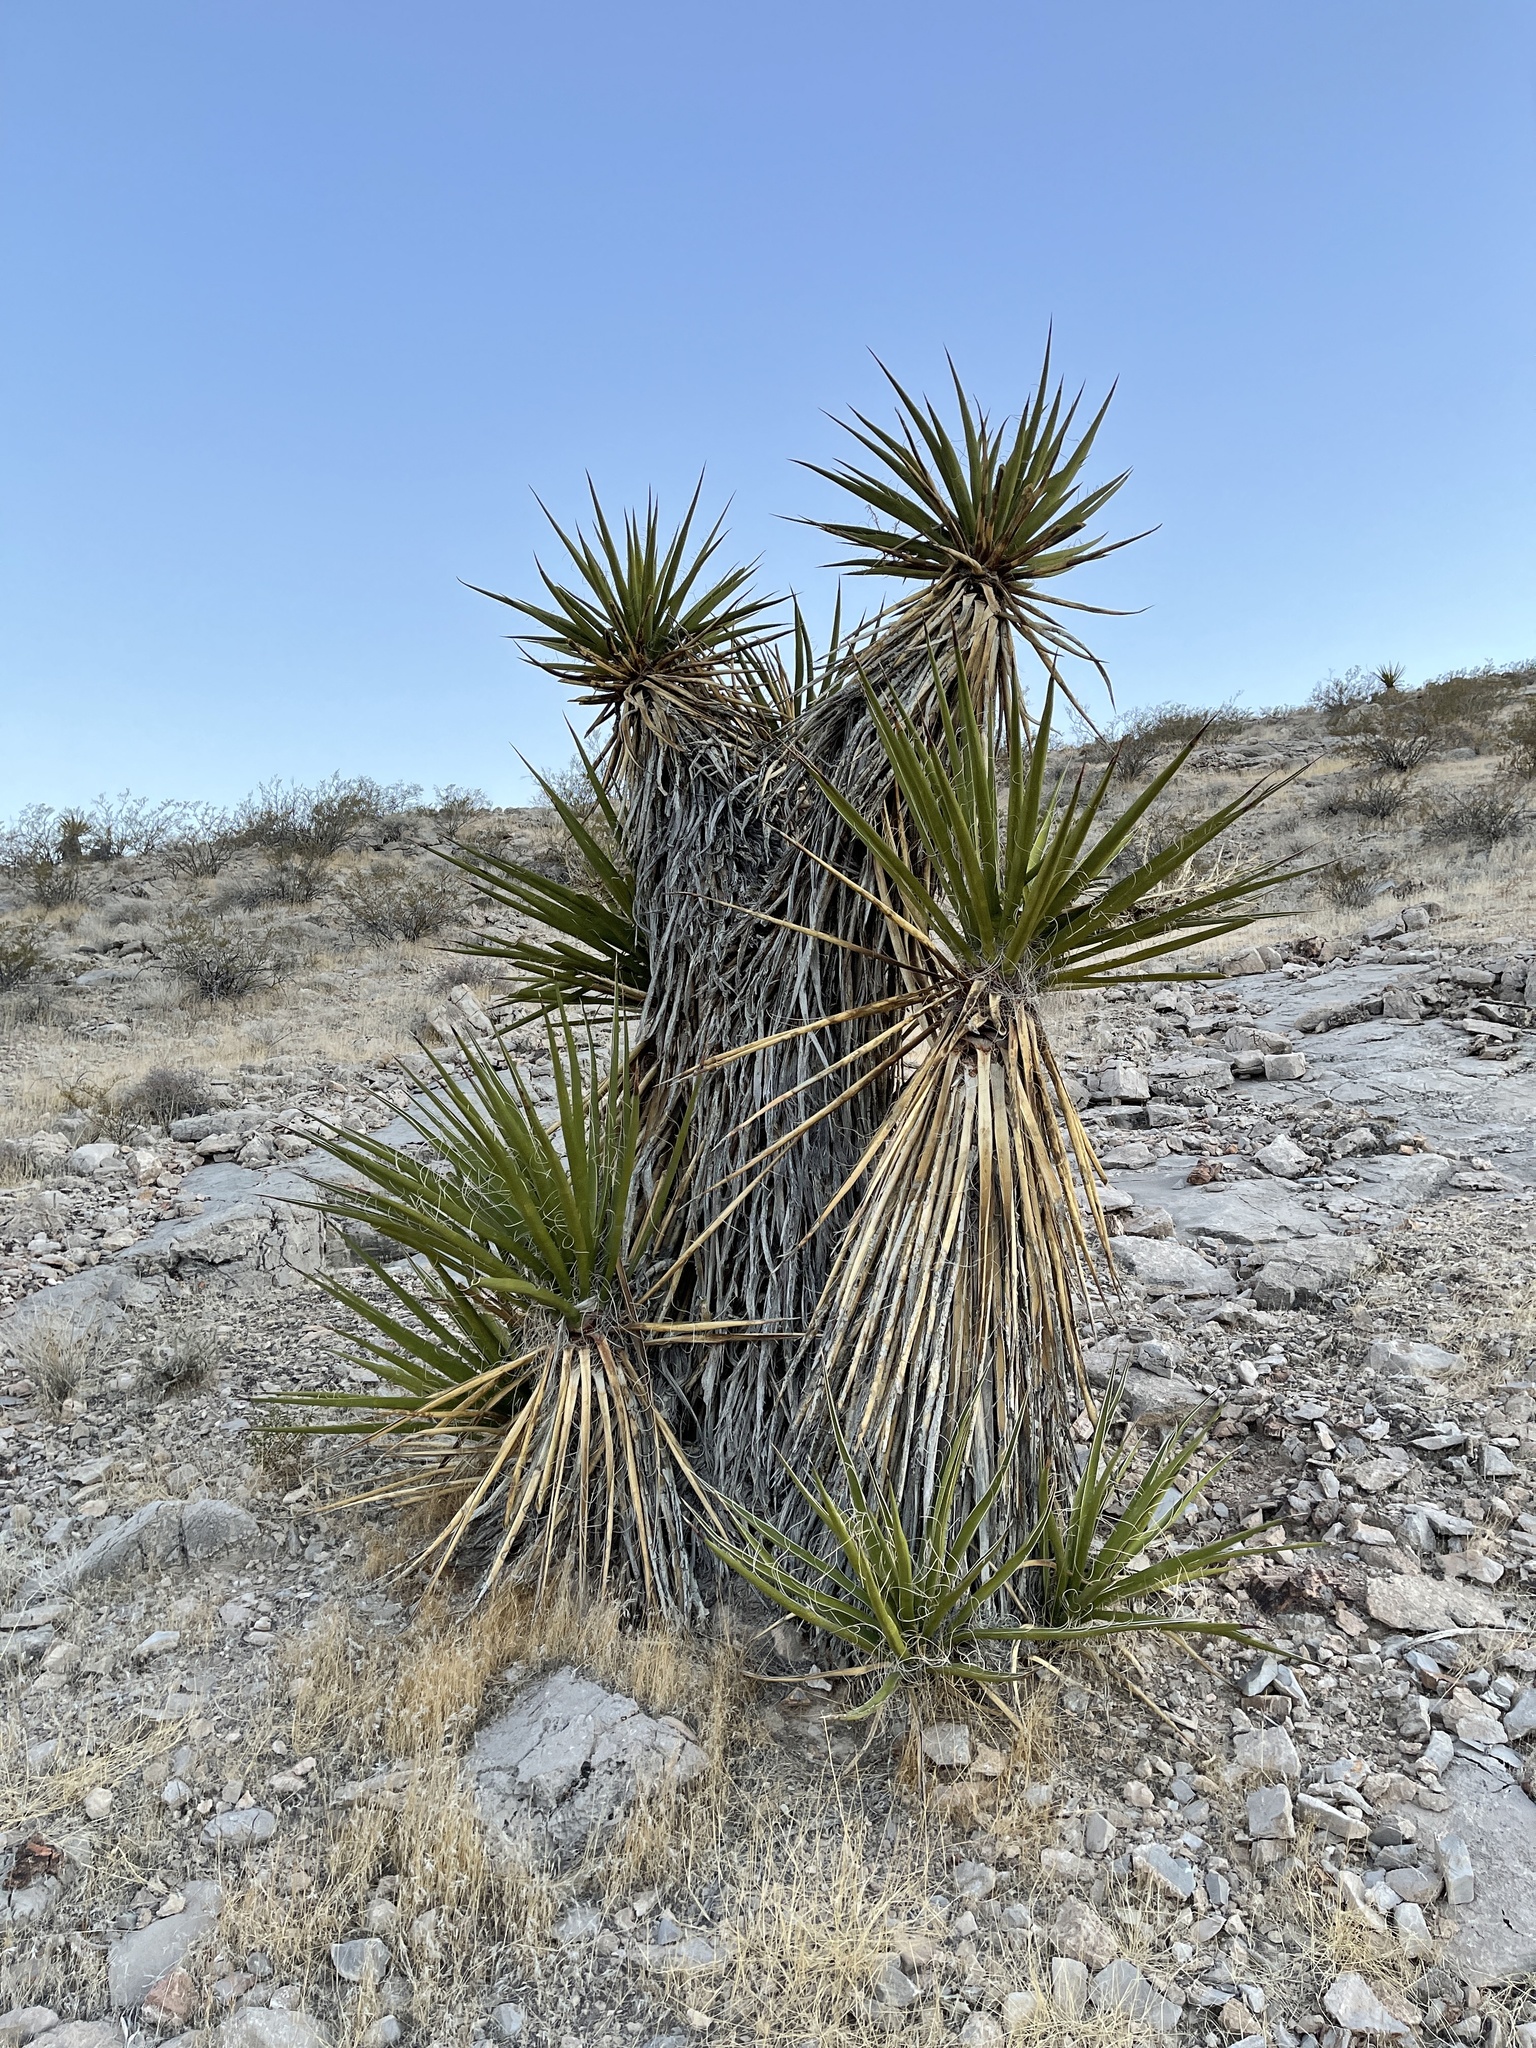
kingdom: Plantae
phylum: Tracheophyta
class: Liliopsida
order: Asparagales
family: Asparagaceae
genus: Yucca
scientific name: Yucca schidigera
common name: Mojave yucca
